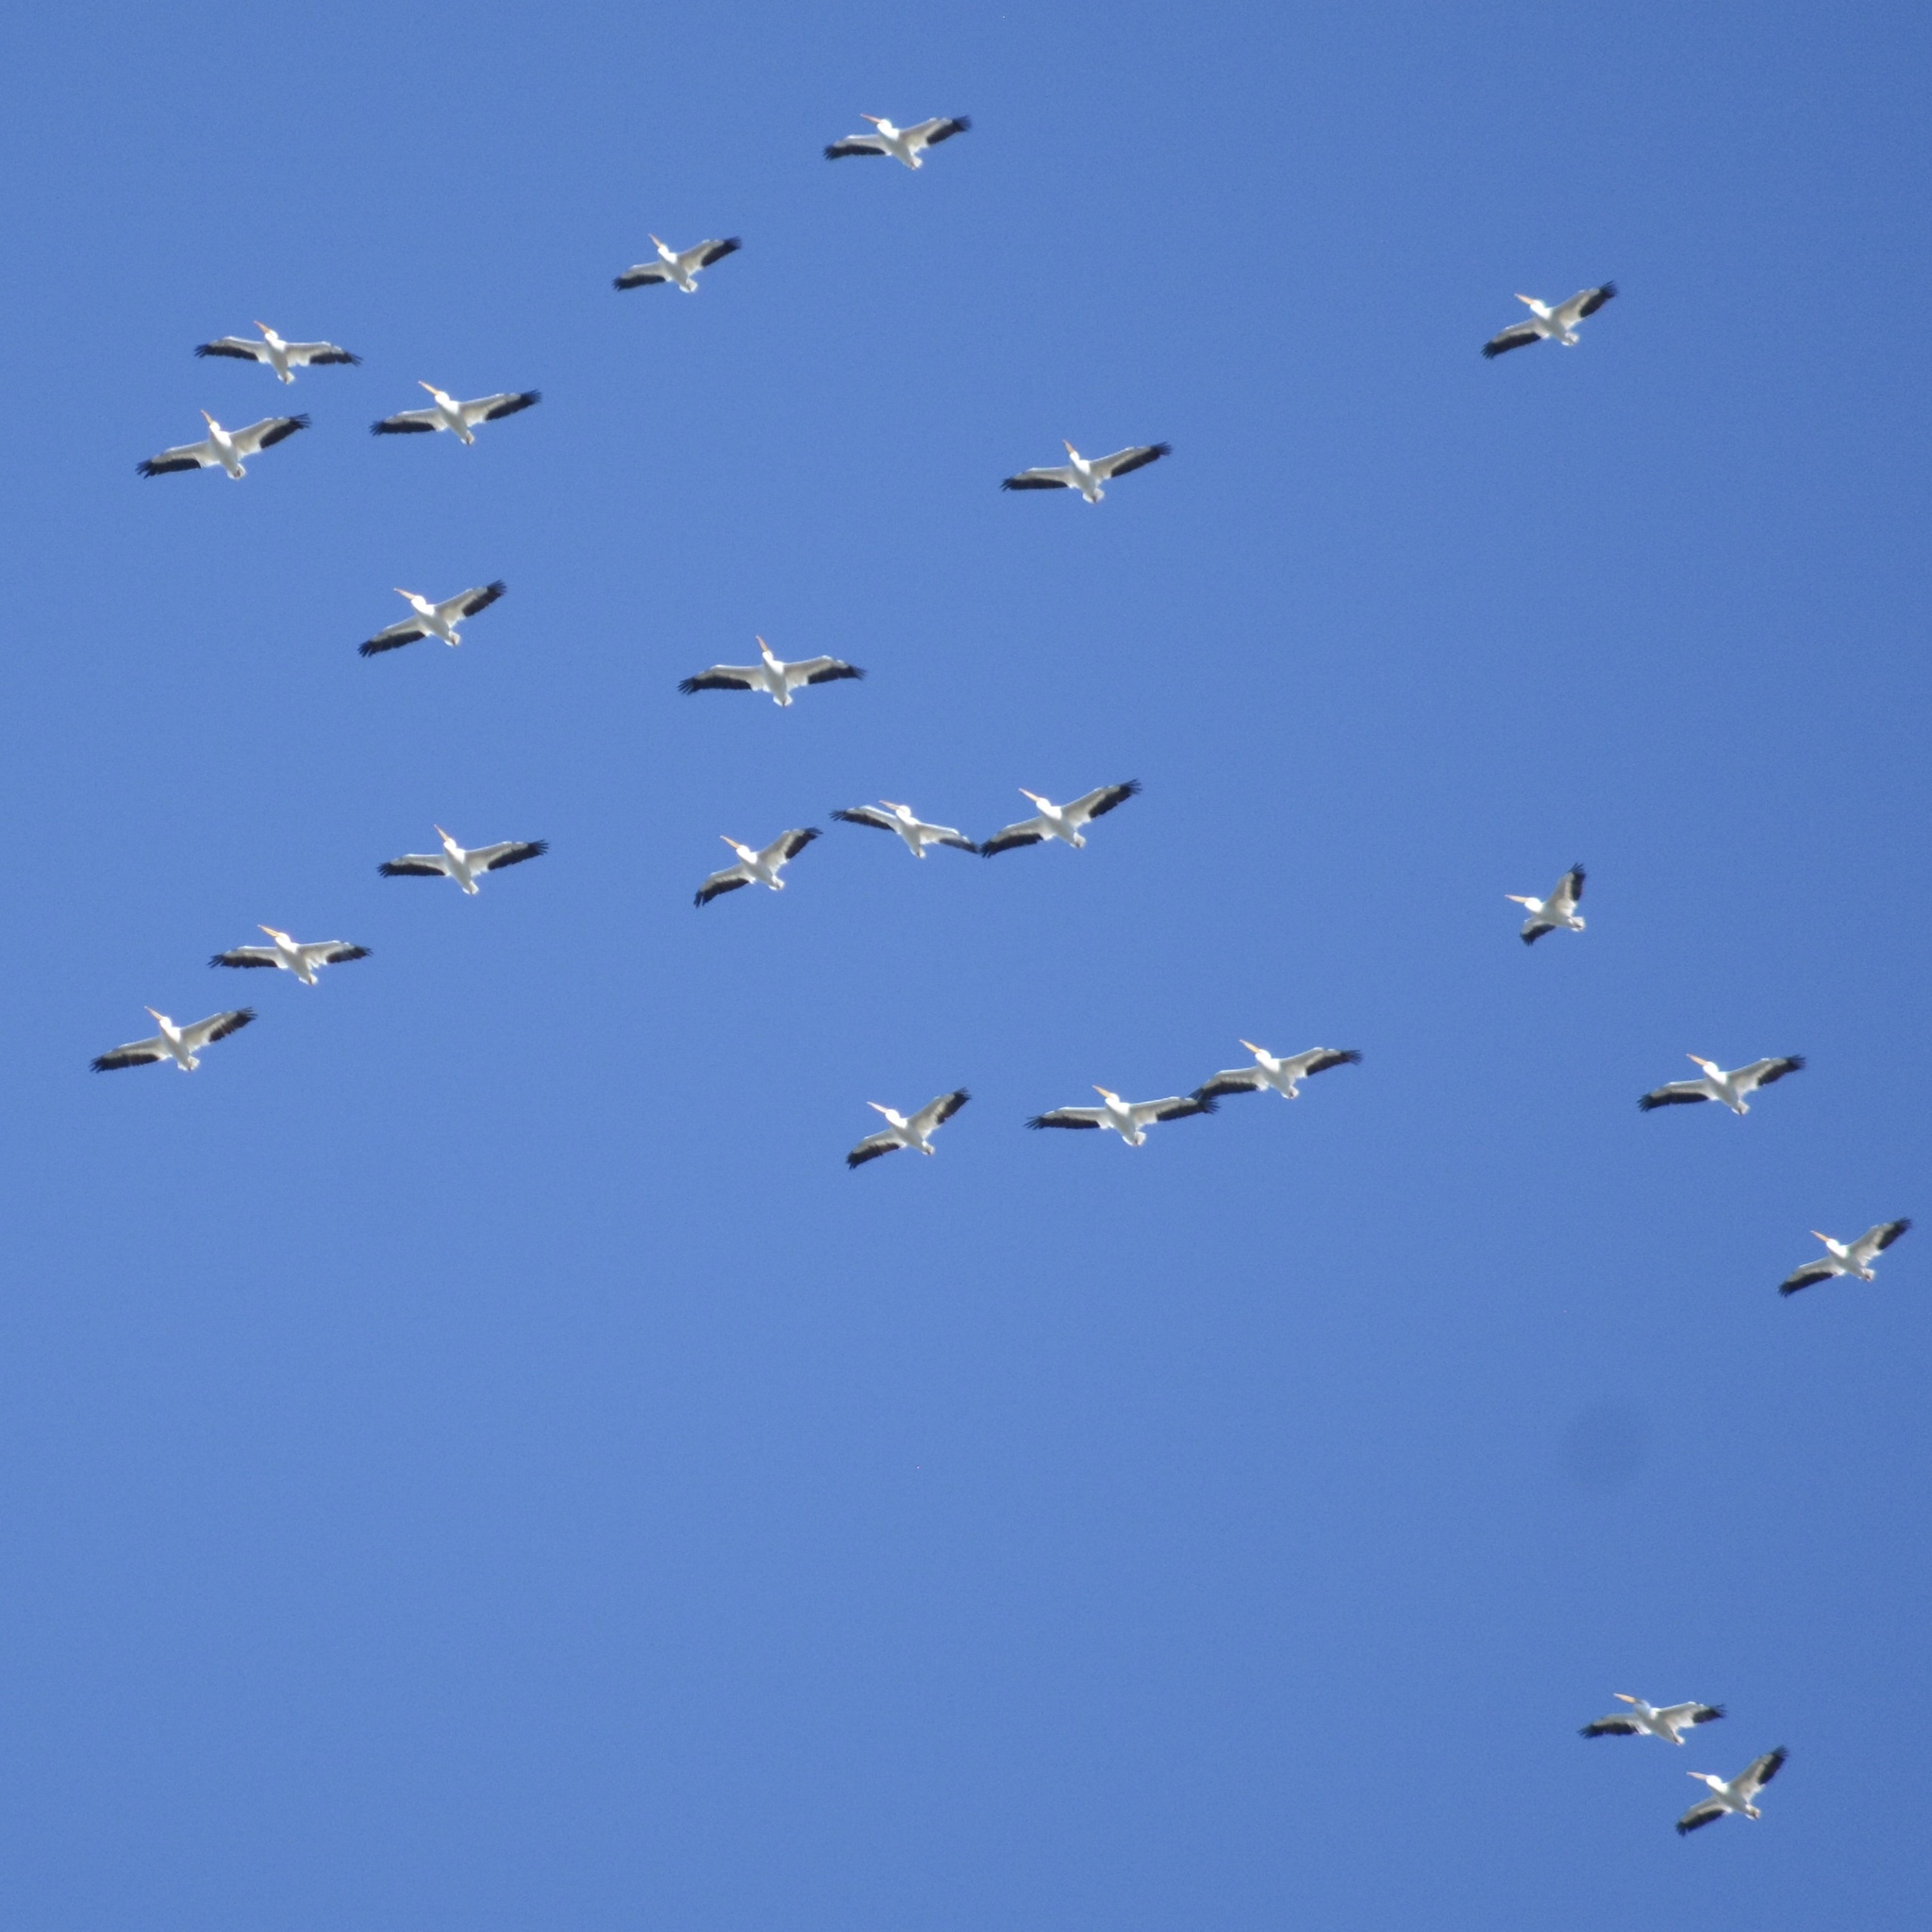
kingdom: Animalia
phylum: Chordata
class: Aves
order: Pelecaniformes
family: Pelecanidae
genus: Pelecanus
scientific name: Pelecanus erythrorhynchos
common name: American white pelican
